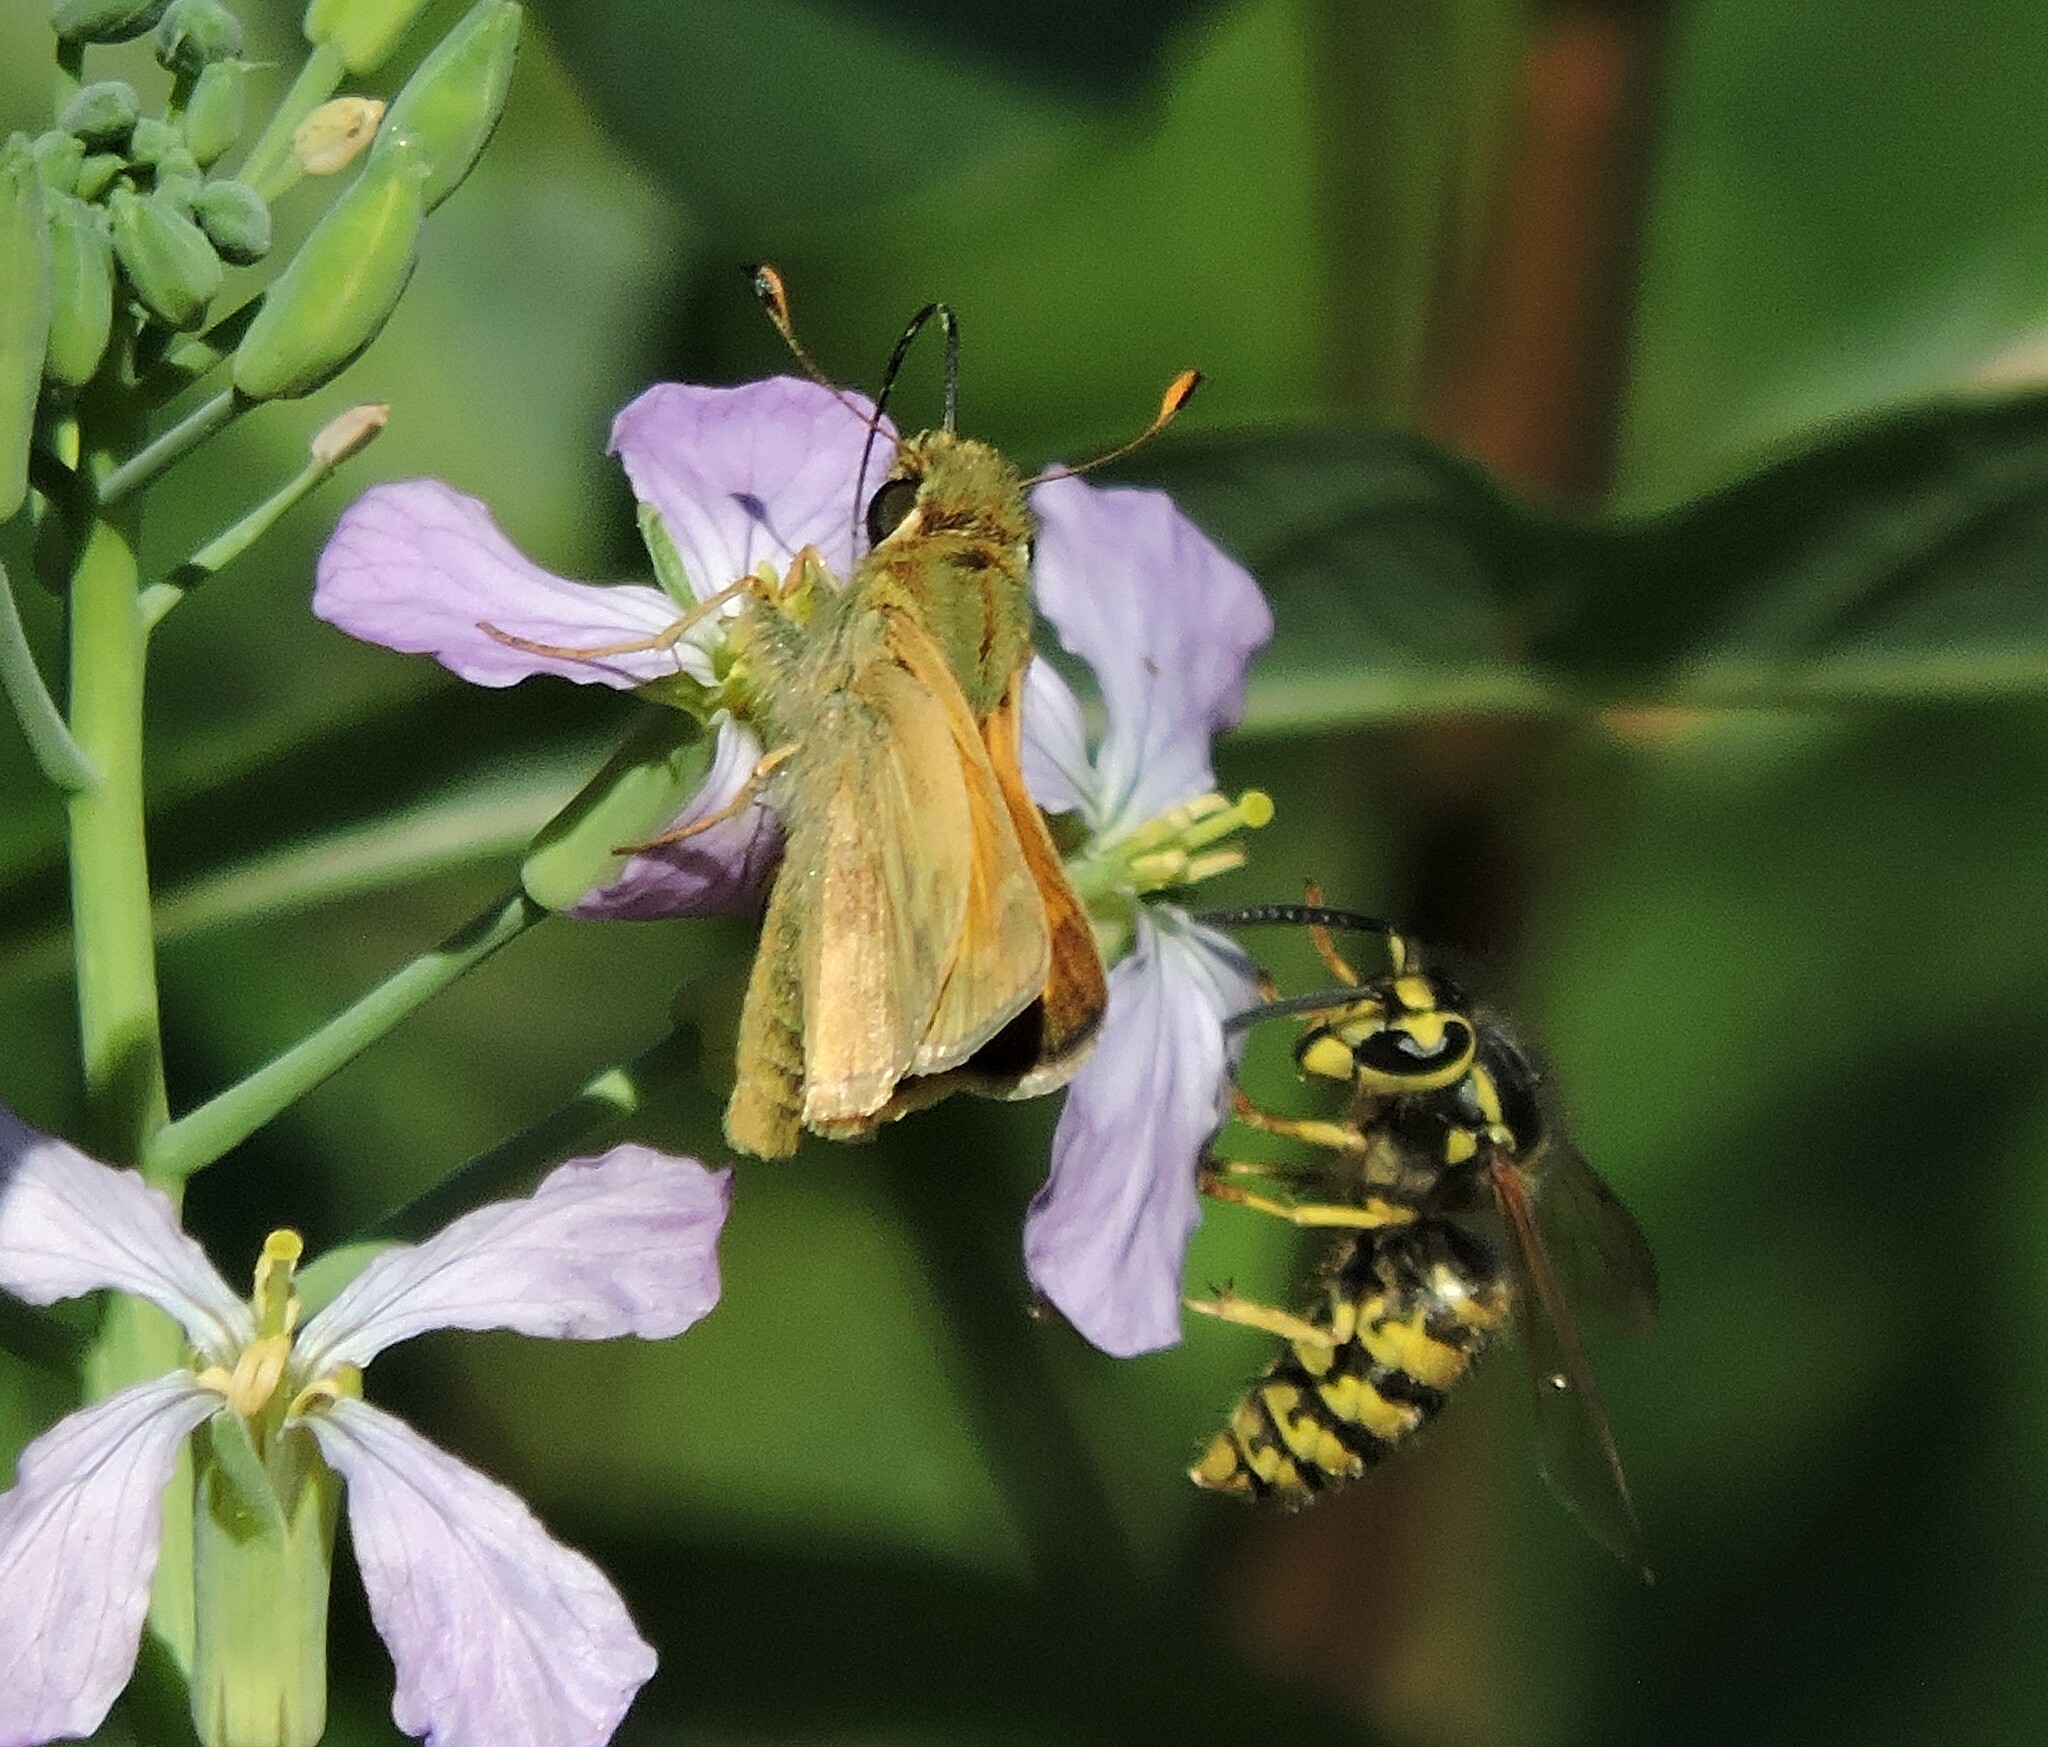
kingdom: Animalia
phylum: Arthropoda
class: Insecta
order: Hymenoptera
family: Vespidae
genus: Vespula
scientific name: Vespula pensylvanica
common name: Western yellowjacket
